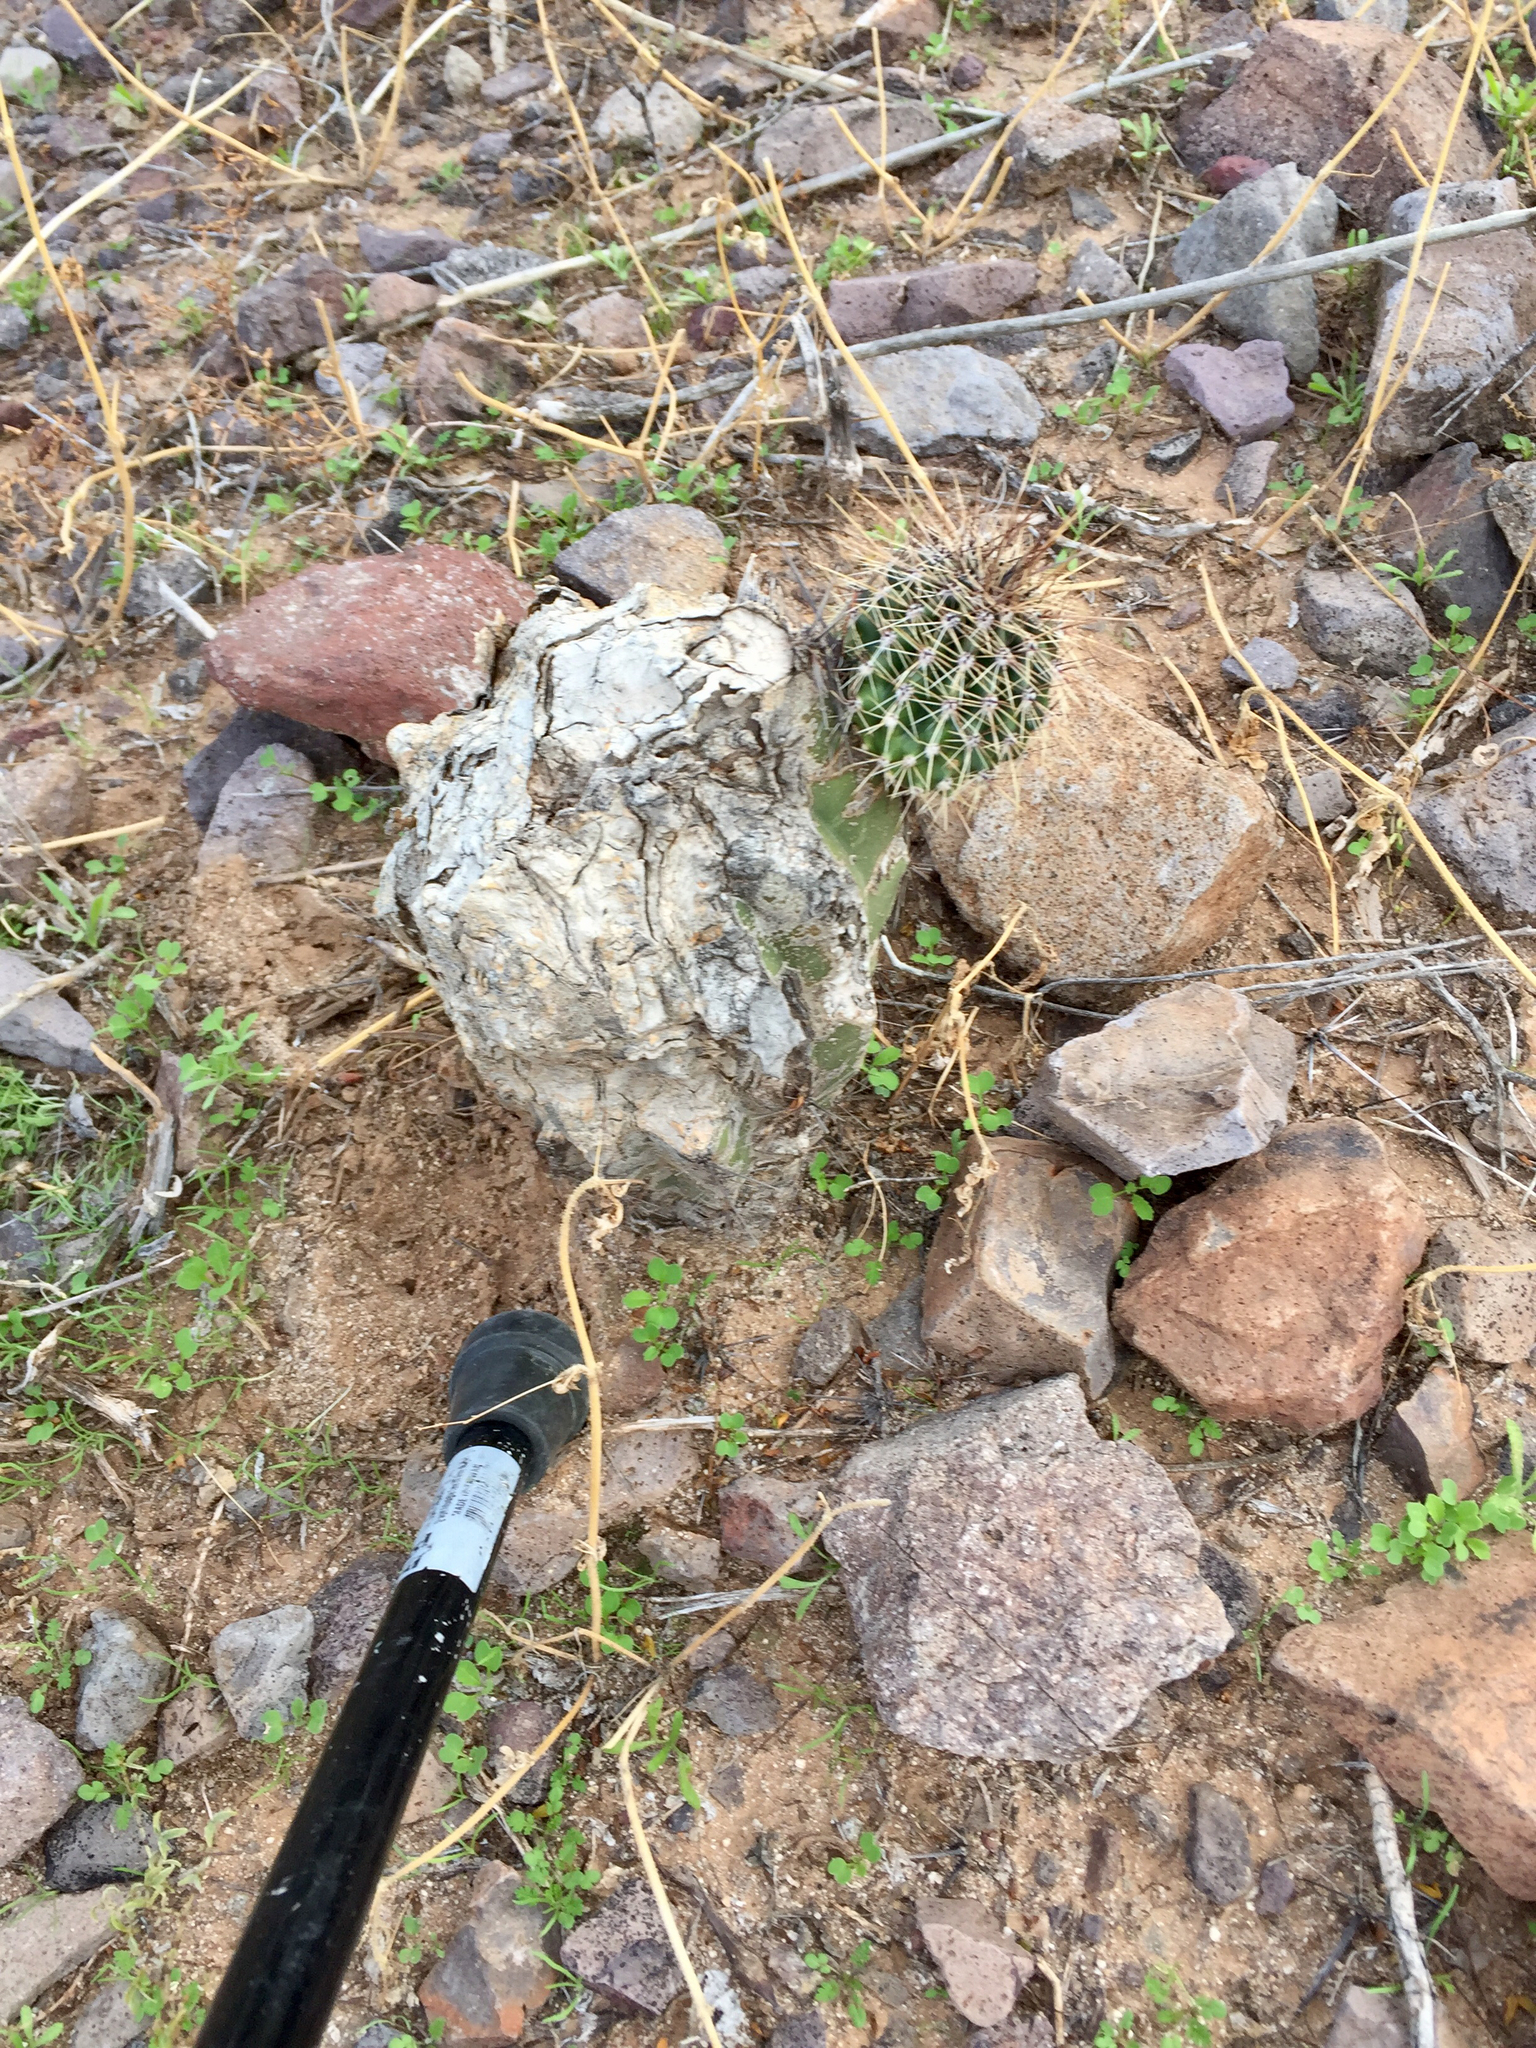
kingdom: Plantae
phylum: Tracheophyta
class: Magnoliopsida
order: Caryophyllales
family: Cactaceae
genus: Carnegiea
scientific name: Carnegiea gigantea
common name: Saguaro
